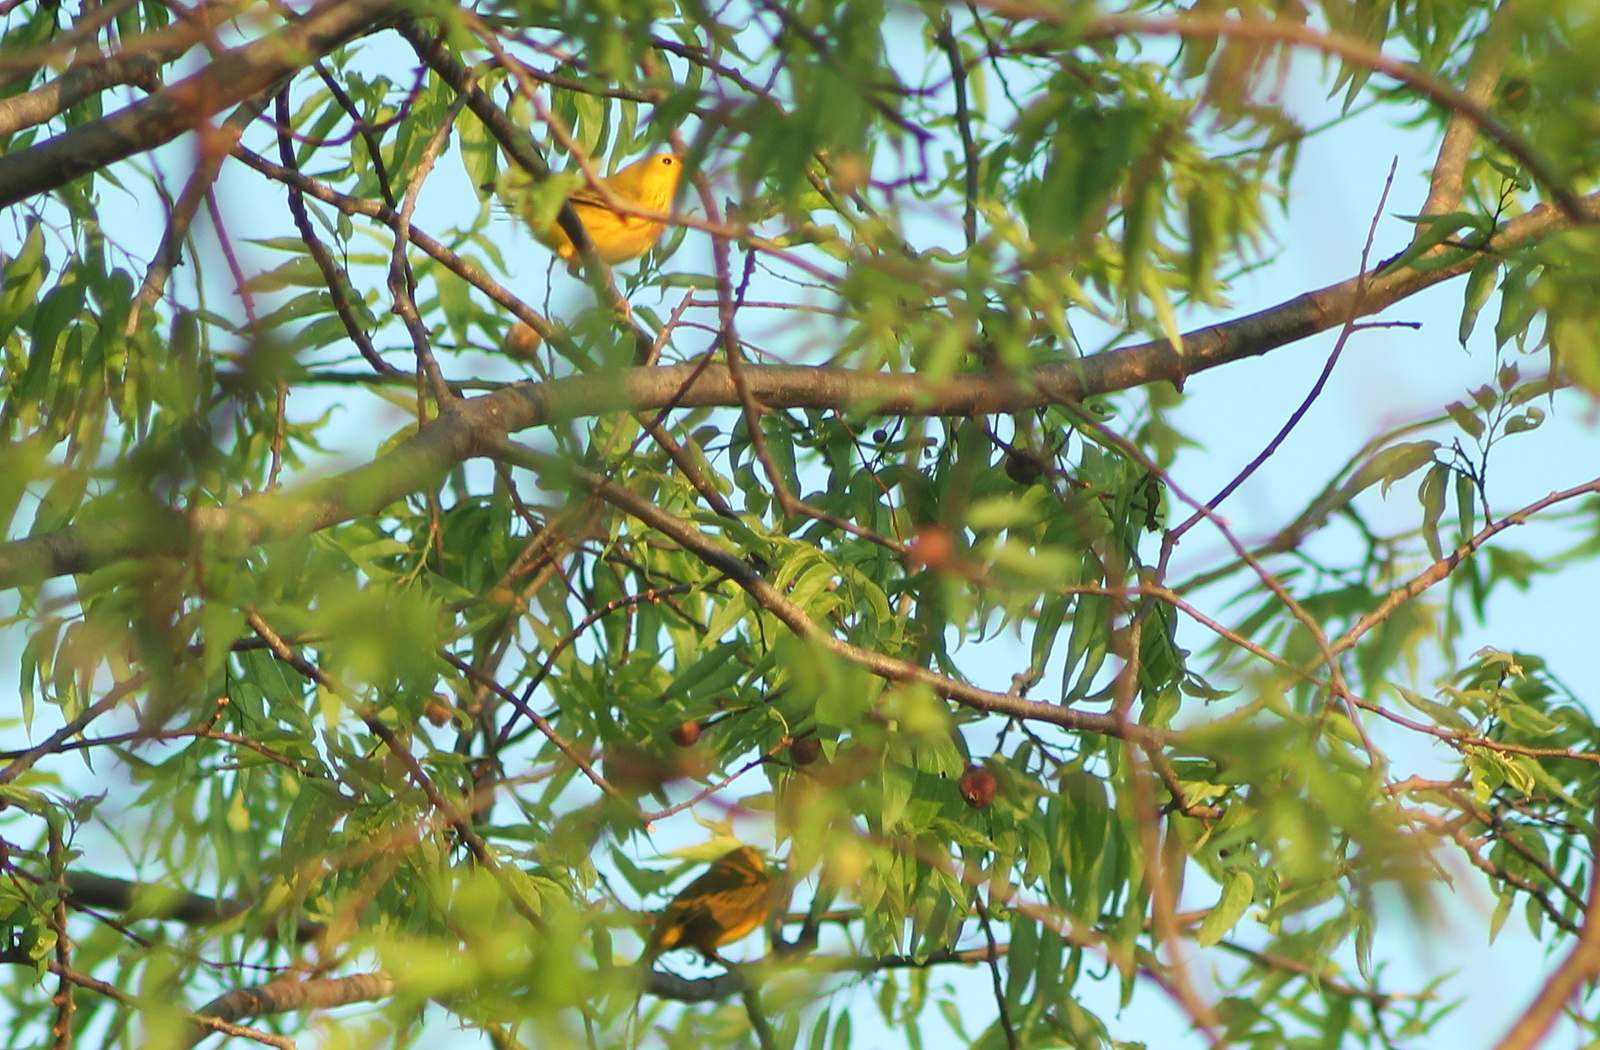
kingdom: Animalia
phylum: Chordata
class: Aves
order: Passeriformes
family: Parulidae
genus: Setophaga
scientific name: Setophaga petechia
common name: Yellow warbler
